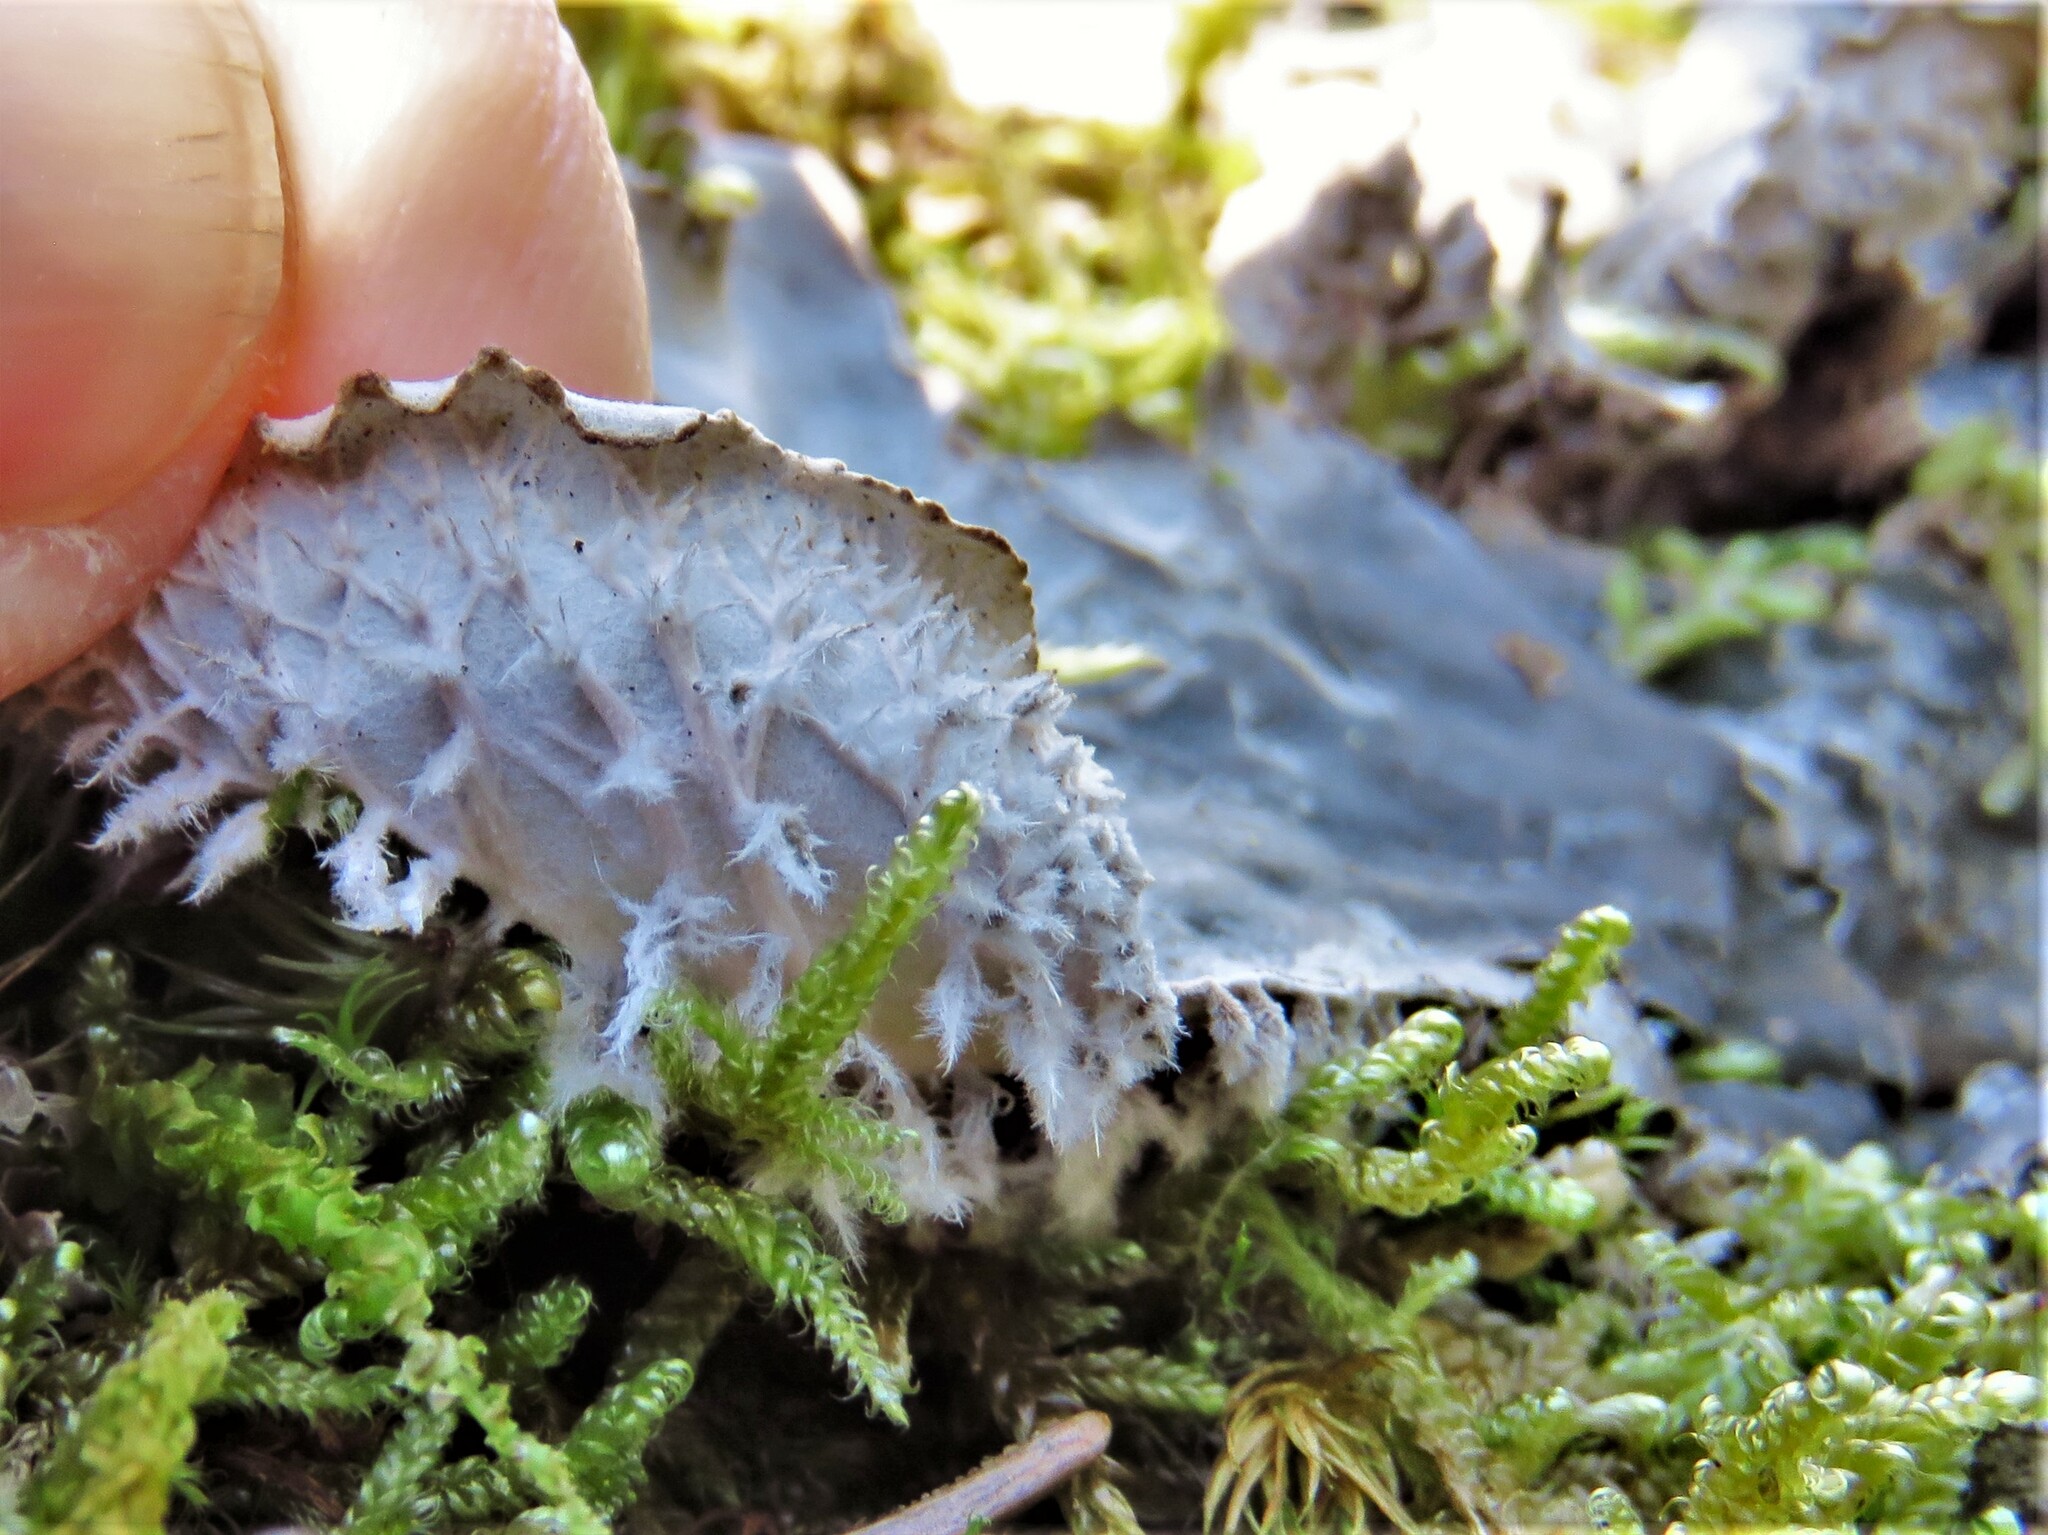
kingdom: Fungi
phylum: Ascomycota
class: Lecanoromycetes
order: Peltigerales
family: Peltigeraceae
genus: Peltigera
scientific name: Peltigera canina
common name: Dog pelt lichen
